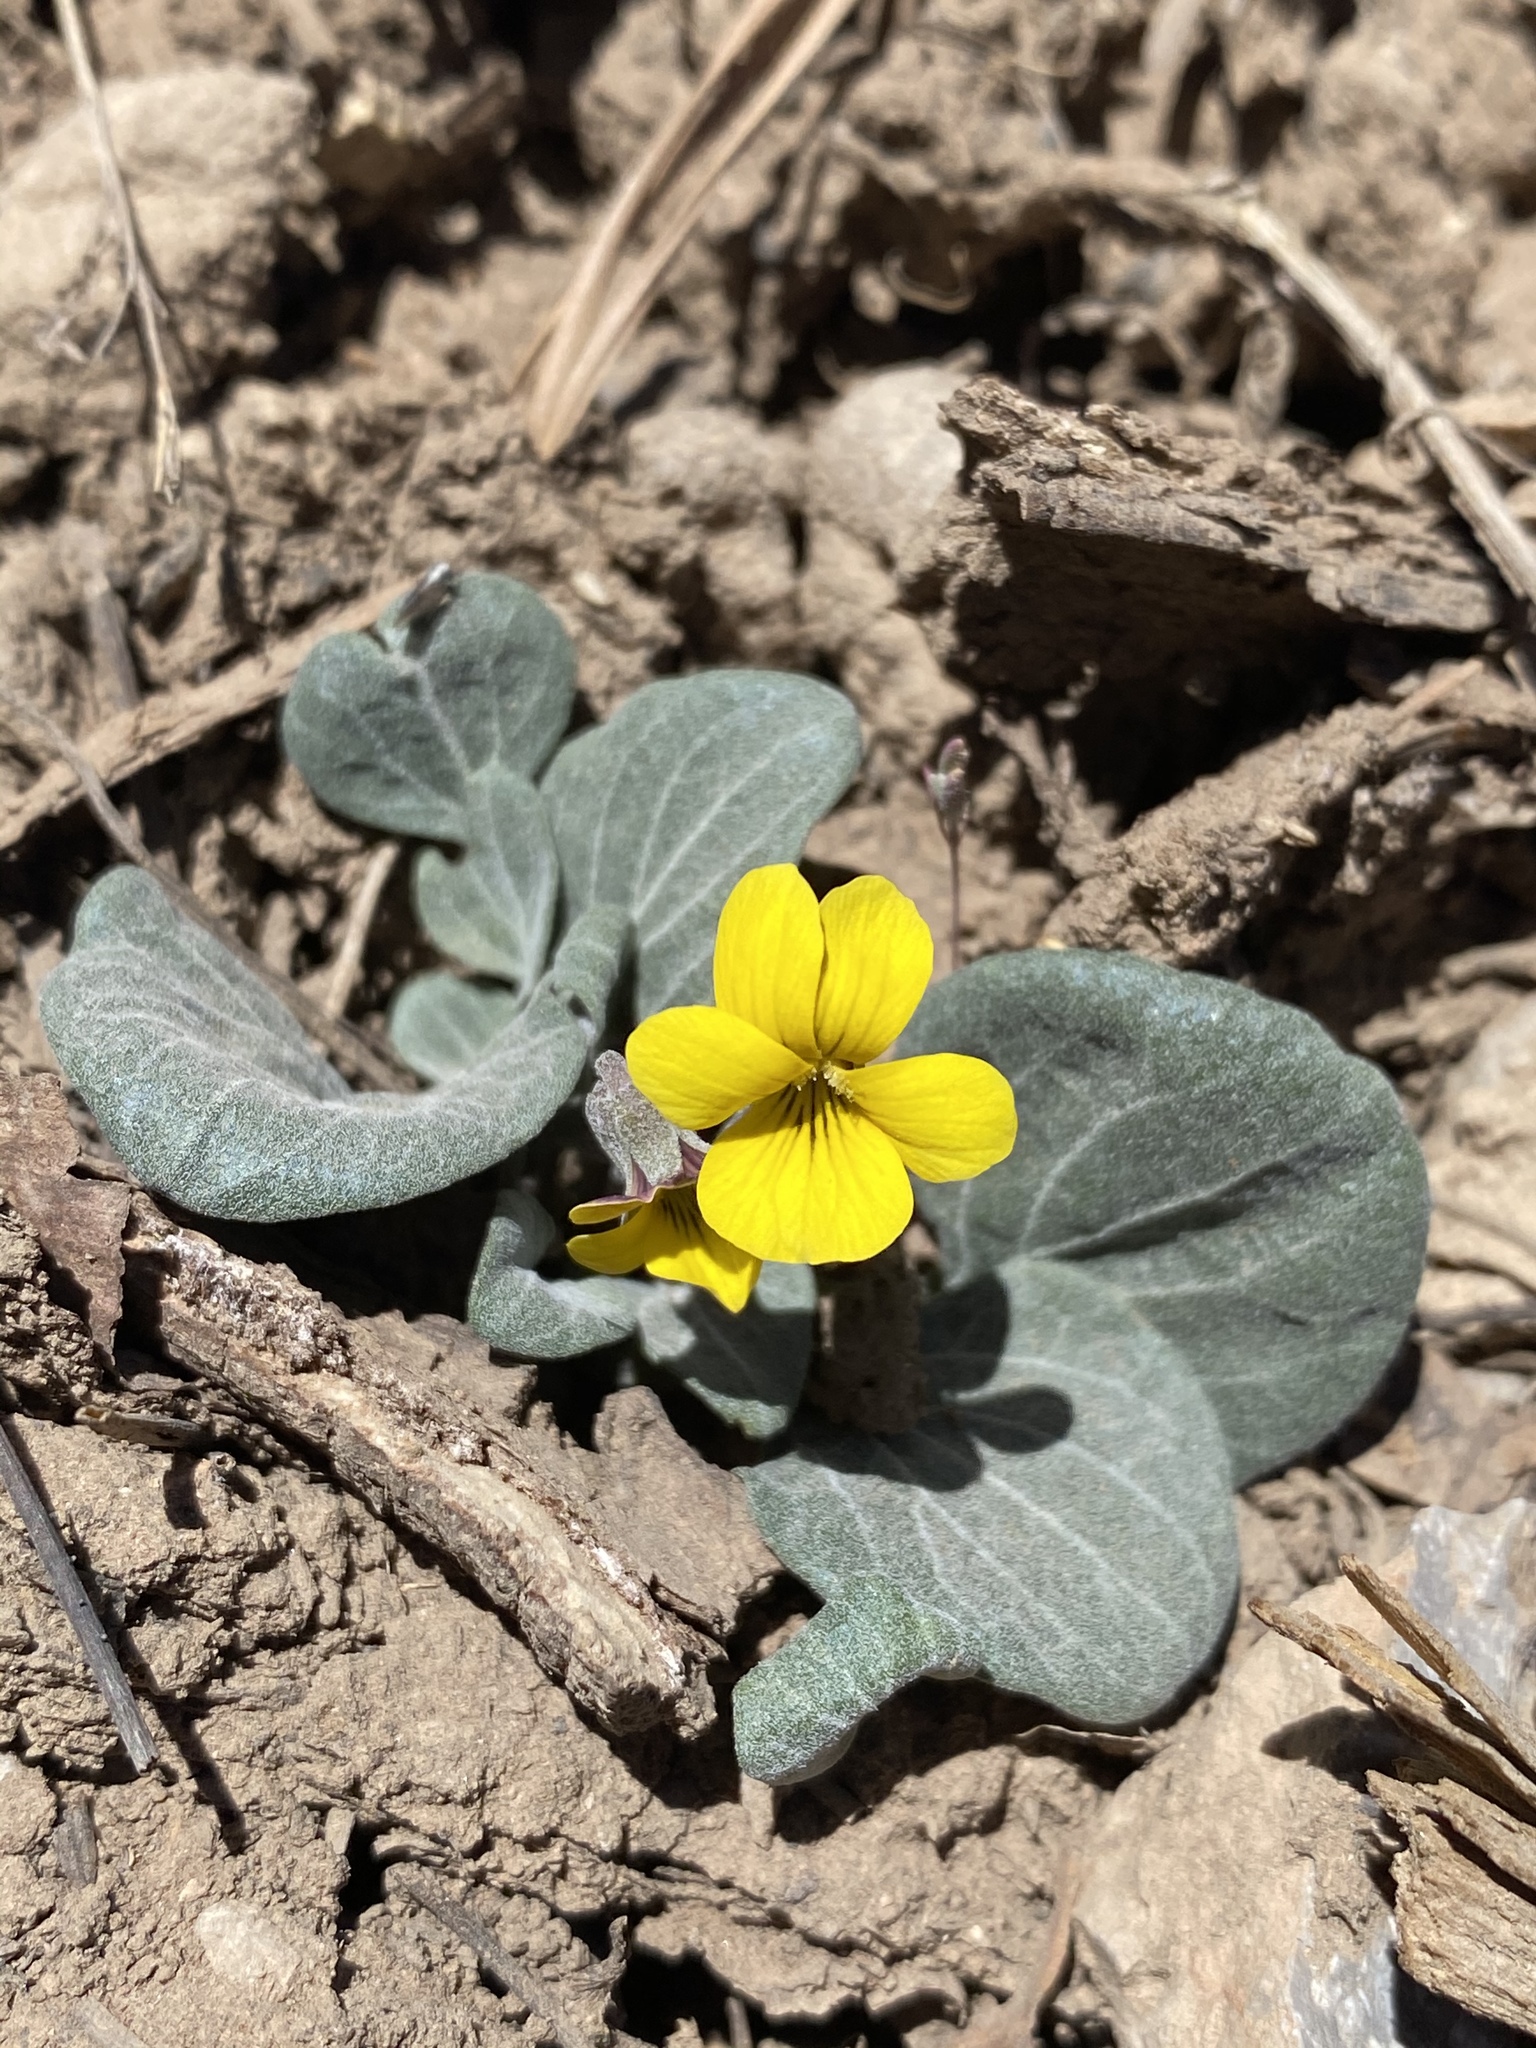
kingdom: Plantae
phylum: Tracheophyta
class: Magnoliopsida
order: Malpighiales
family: Violaceae
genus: Viola
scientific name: Viola charlestonensis
